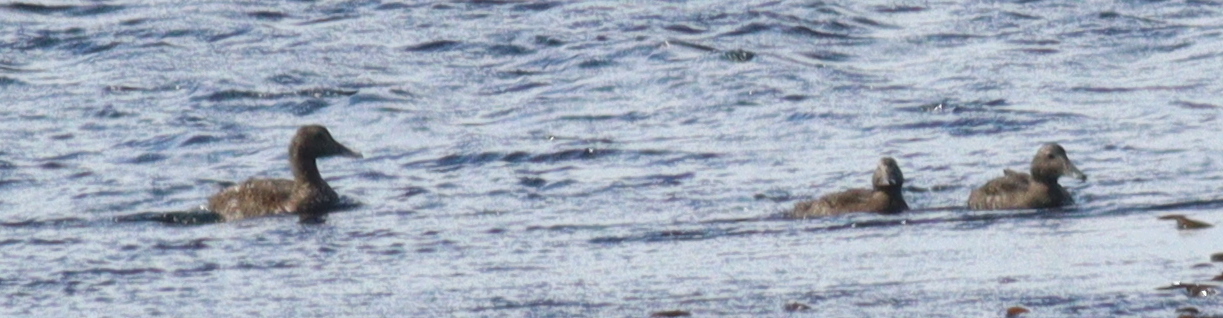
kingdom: Animalia
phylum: Chordata
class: Aves
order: Anseriformes
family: Anatidae
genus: Somateria
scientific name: Somateria mollissima
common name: Common eider
